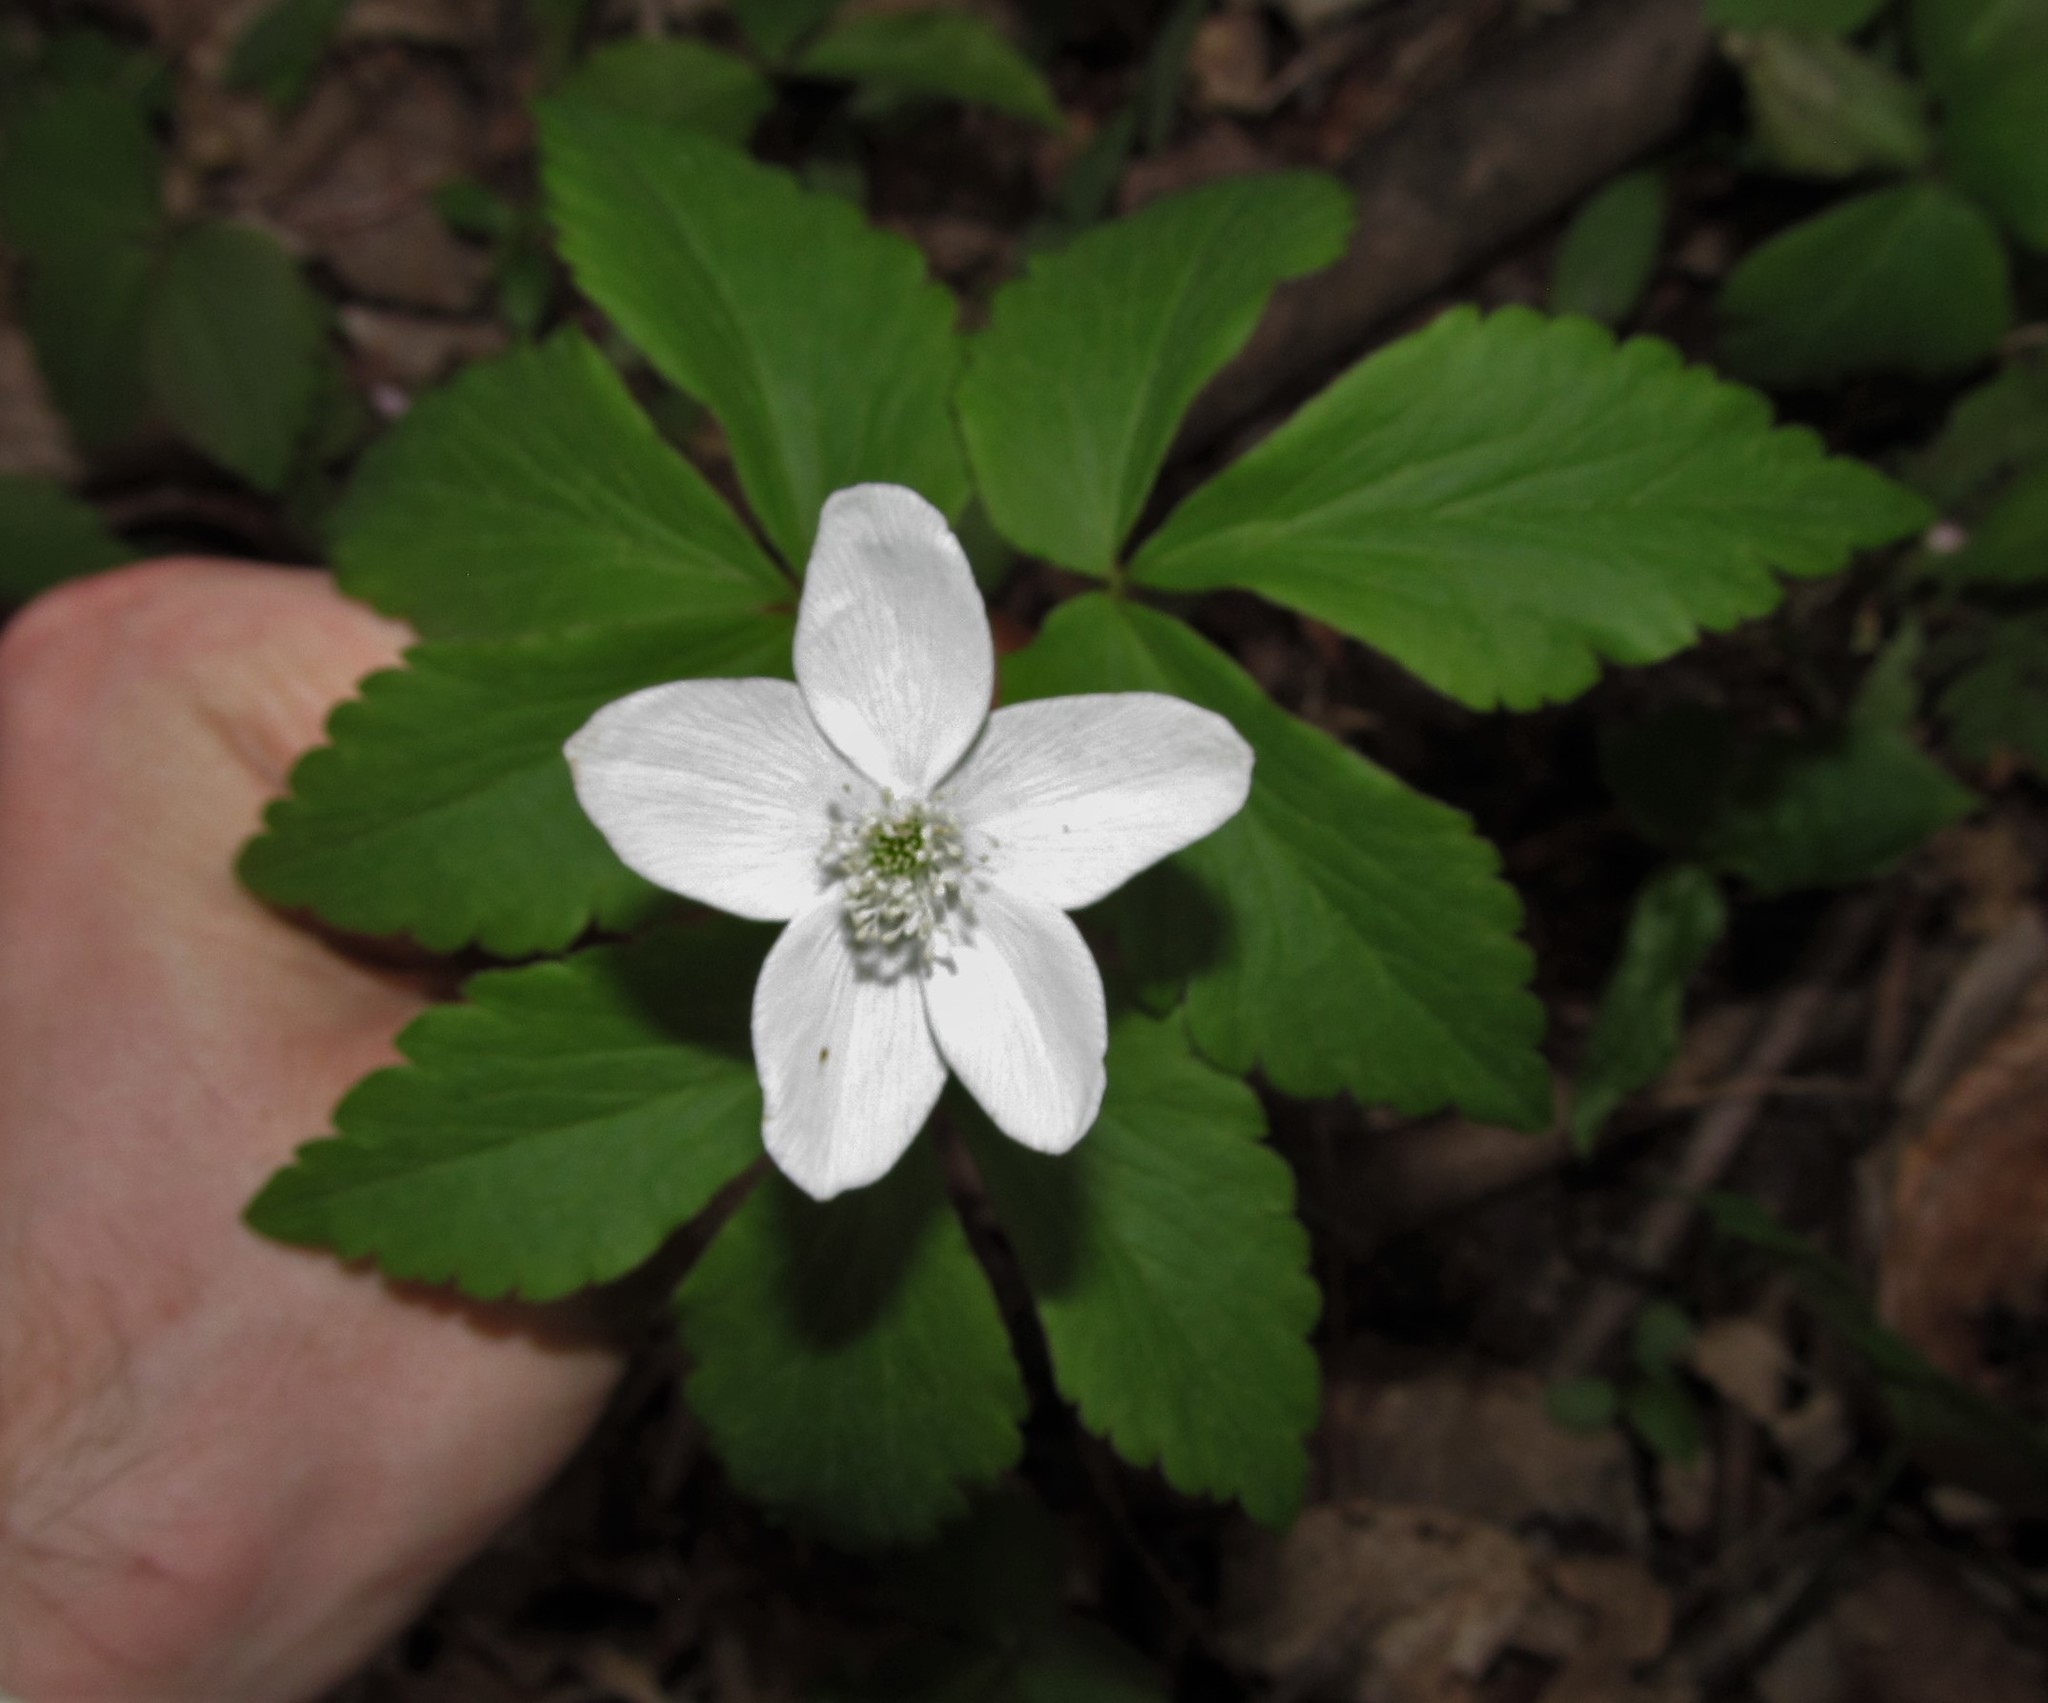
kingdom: Plantae
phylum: Tracheophyta
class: Magnoliopsida
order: Ranunculales
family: Ranunculaceae
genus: Anemone
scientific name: Anemone lancifolia
